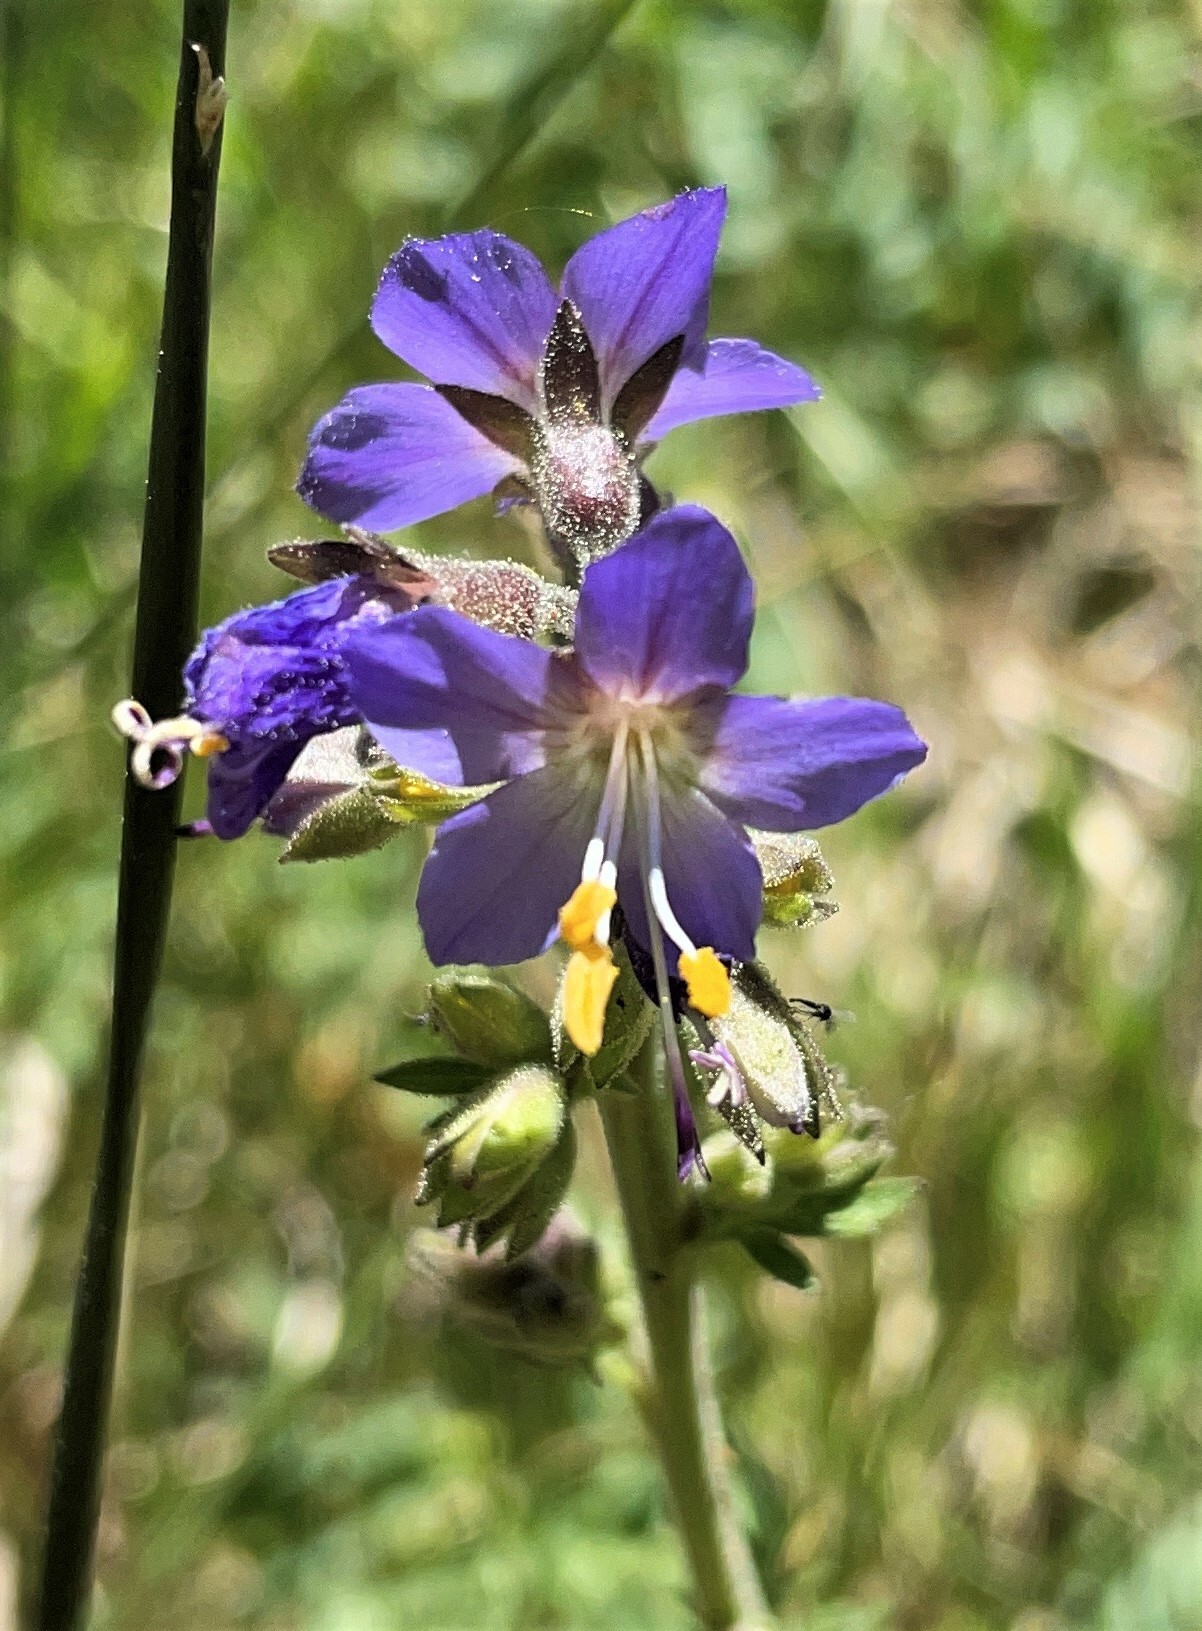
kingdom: Plantae
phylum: Tracheophyta
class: Magnoliopsida
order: Ericales
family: Polemoniaceae
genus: Polemonium
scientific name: Polemonium occidentale
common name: Western jacob's-ladder
